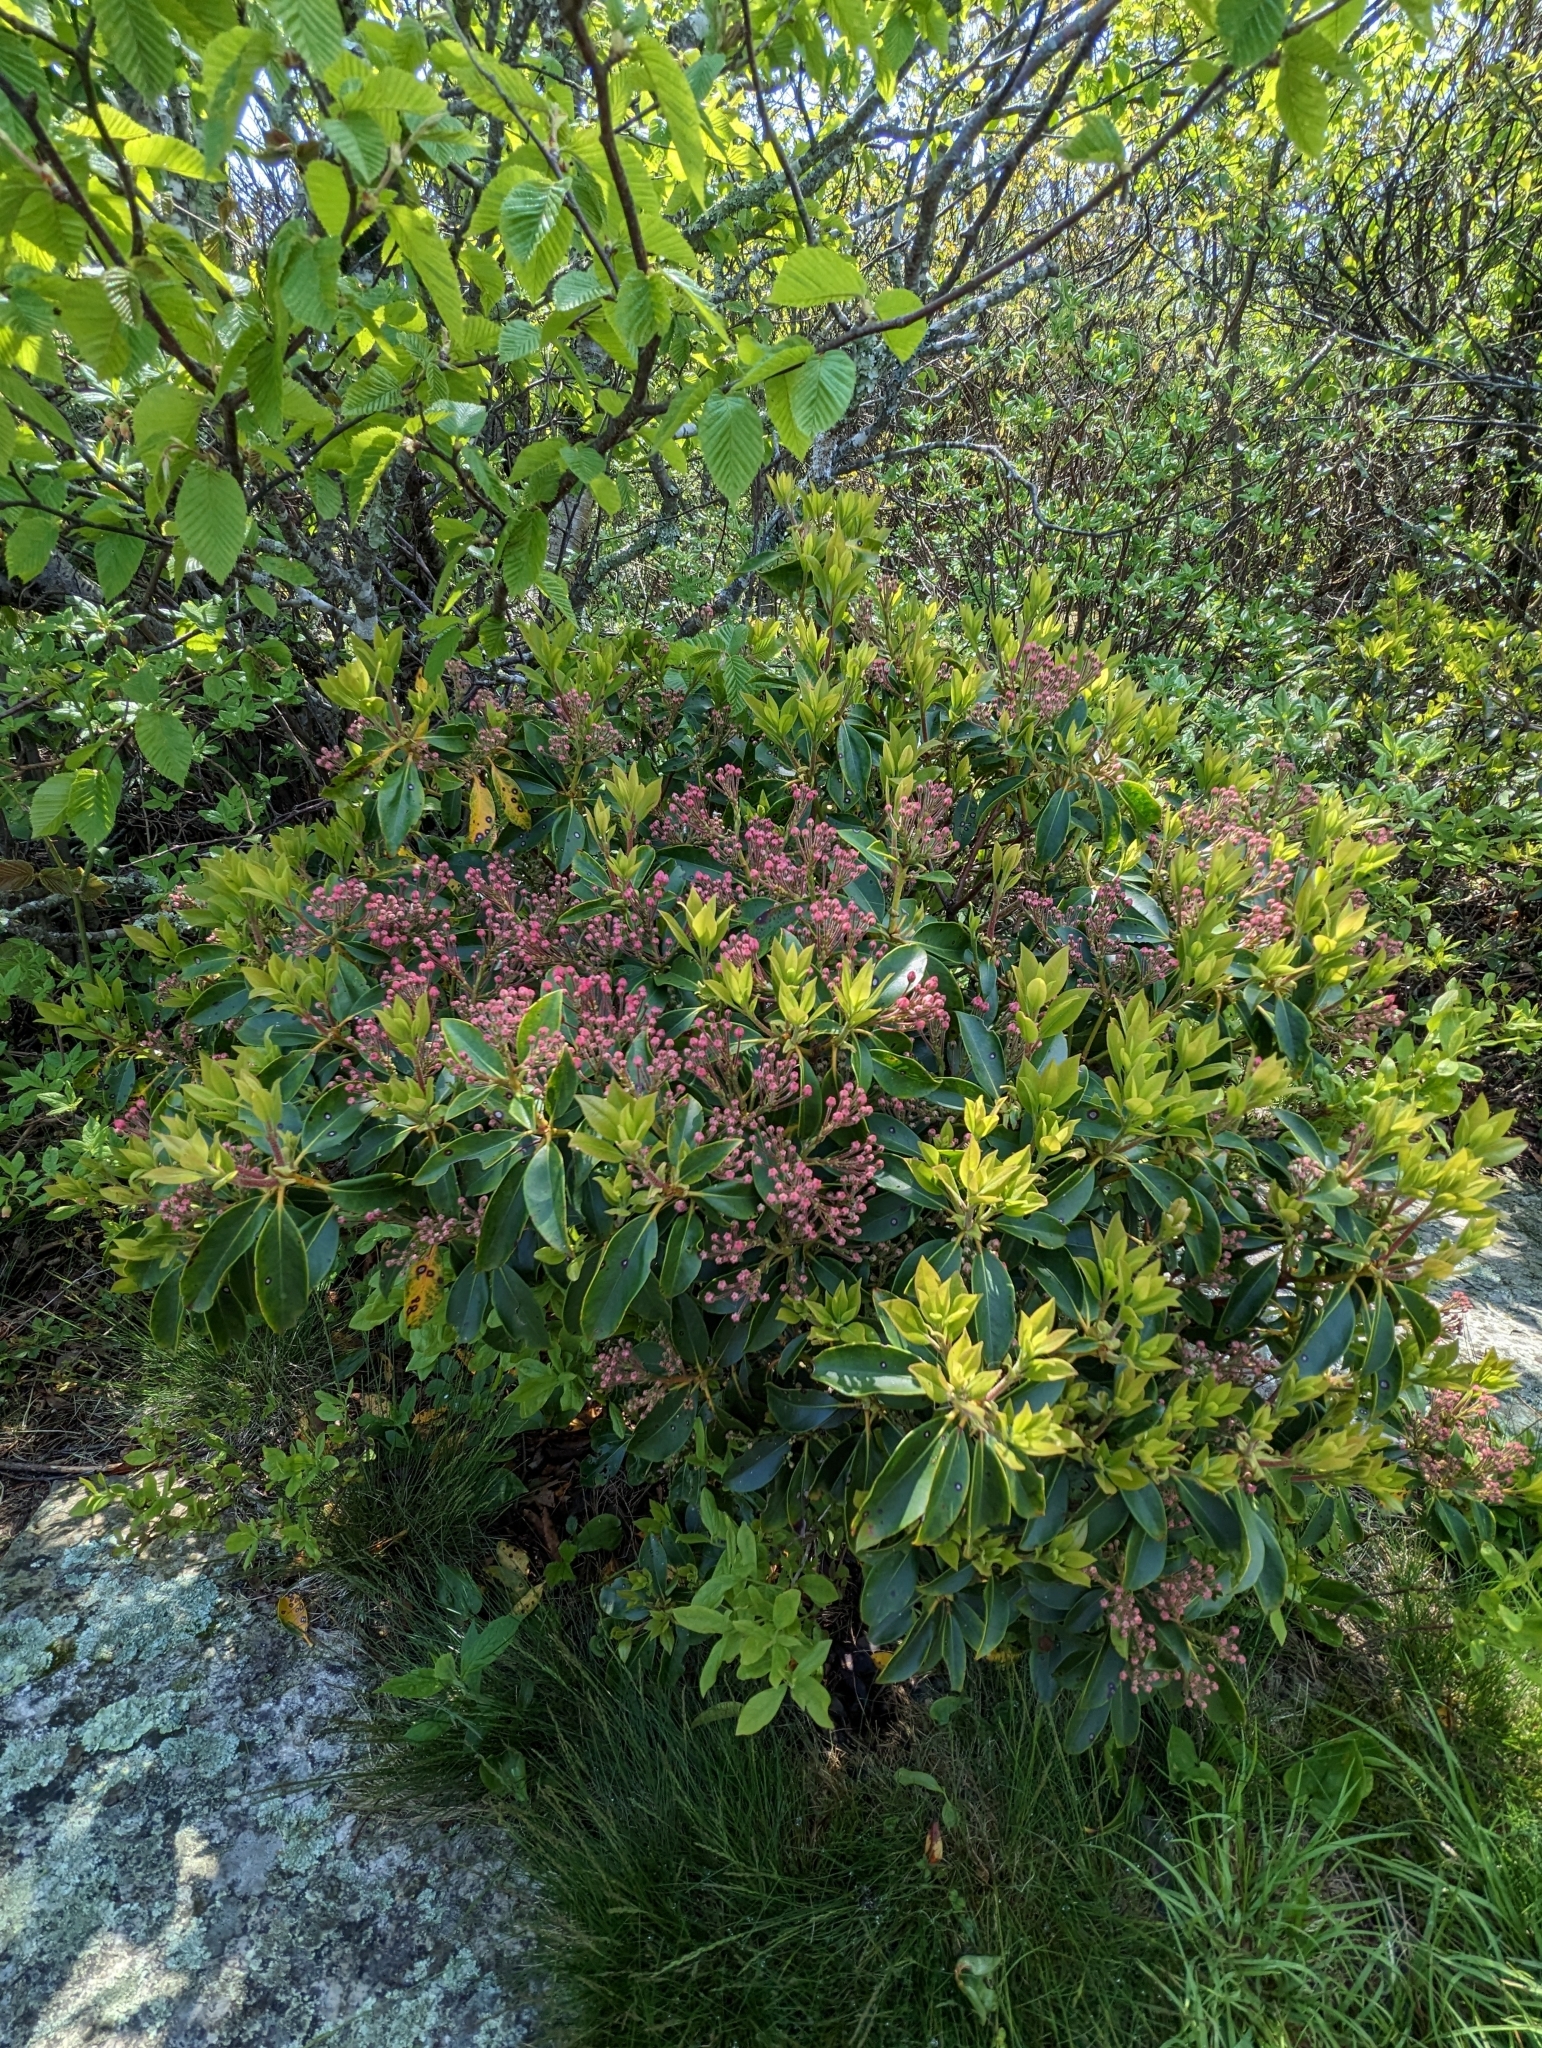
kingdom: Plantae
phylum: Tracheophyta
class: Magnoliopsida
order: Ericales
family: Ericaceae
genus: Kalmia
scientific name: Kalmia latifolia
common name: Mountain-laurel
